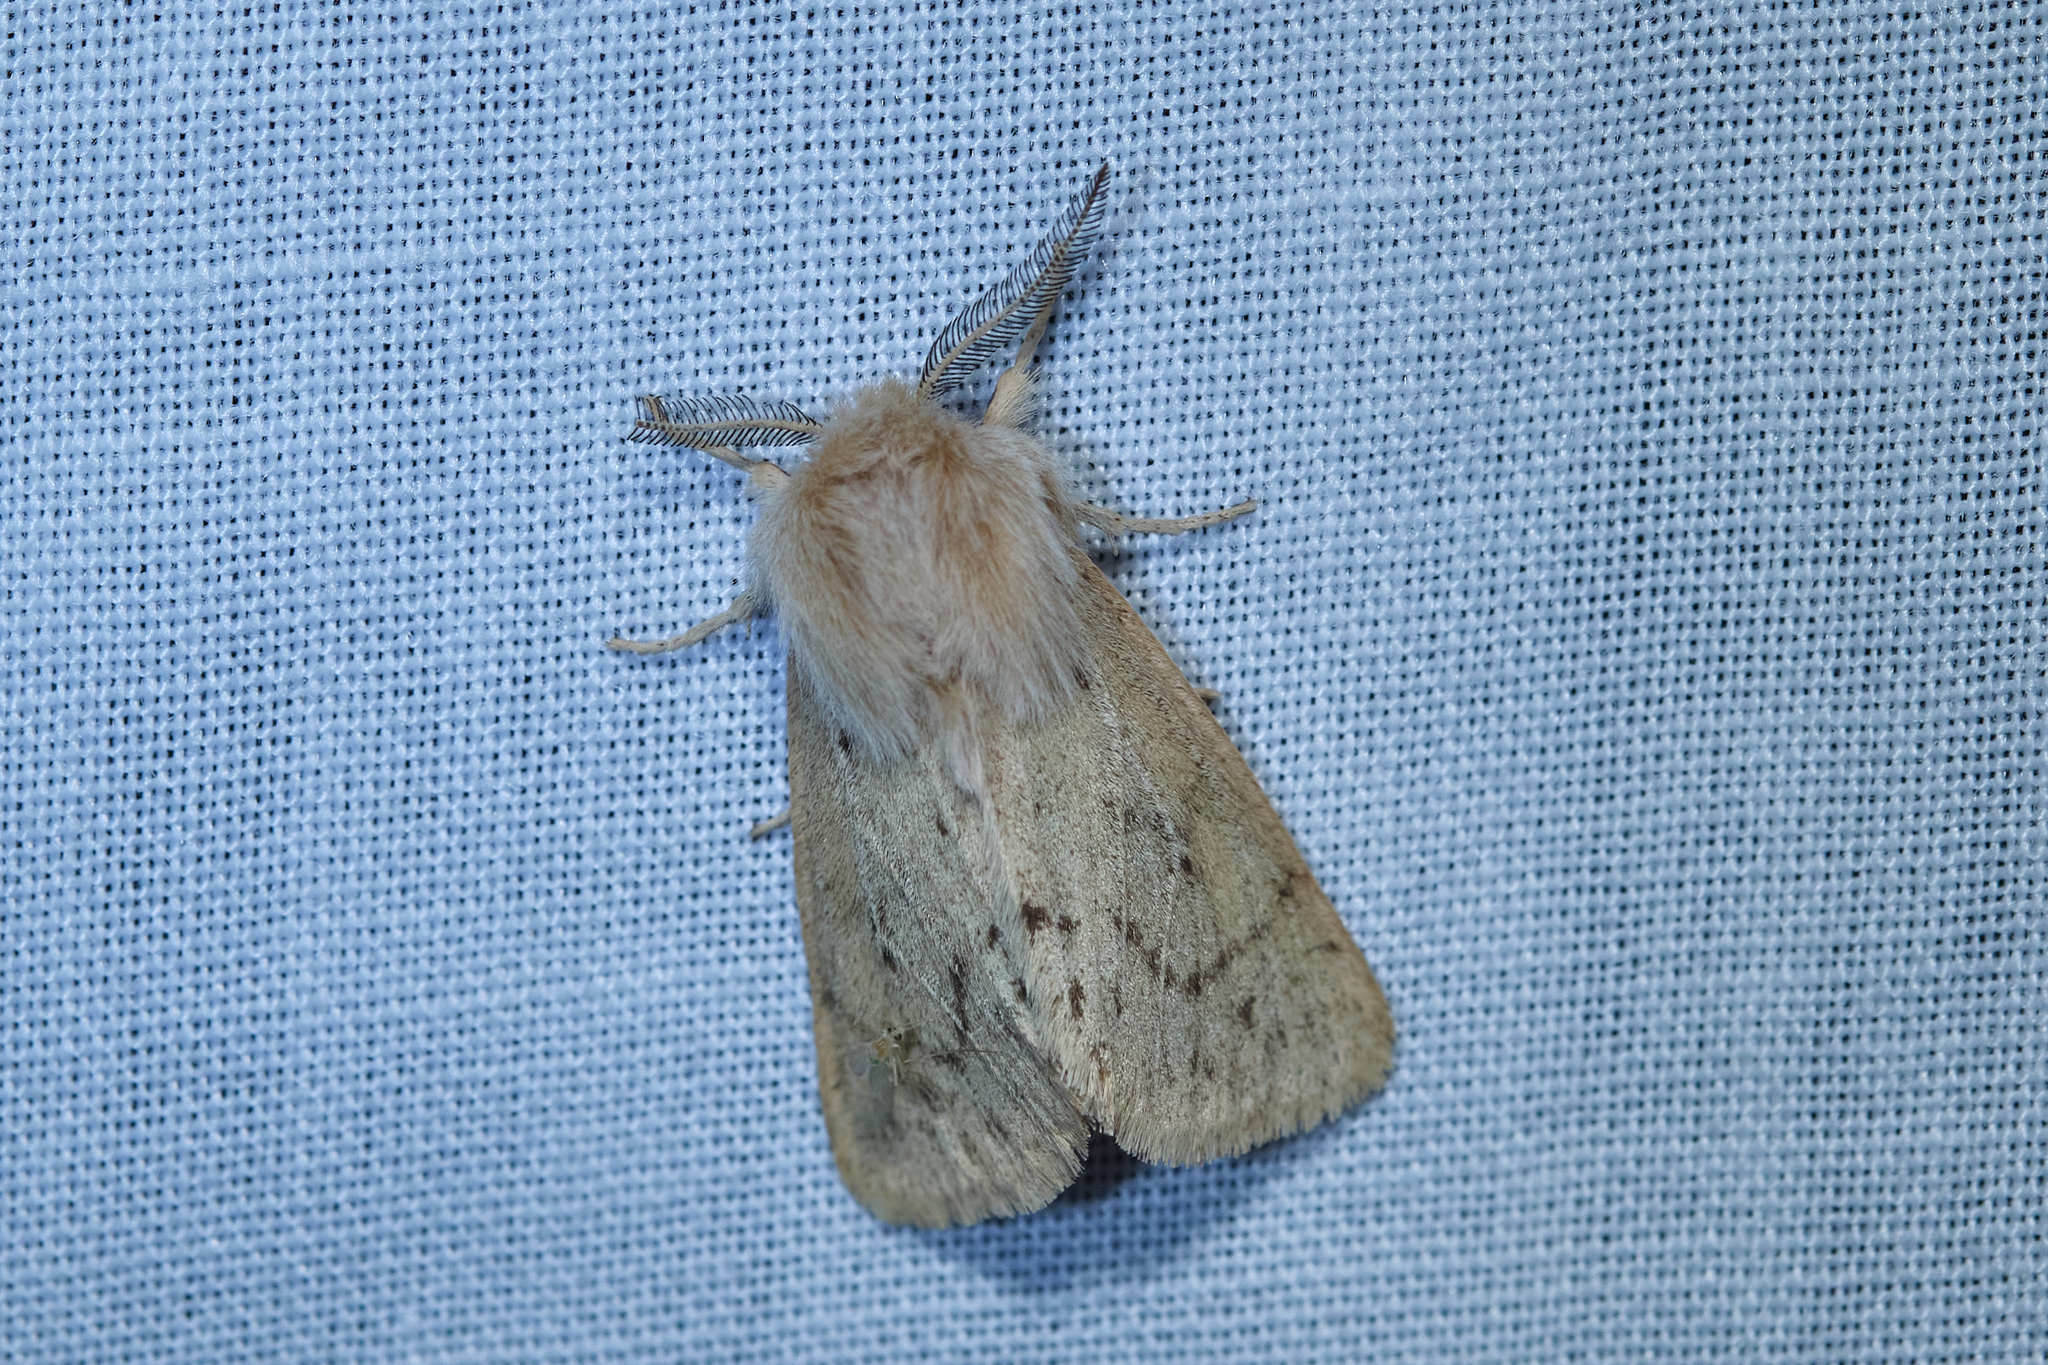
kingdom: Animalia
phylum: Arthropoda
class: Insecta
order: Lepidoptera
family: Erebidae
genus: Spilosoma
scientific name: Spilosoma vagans
